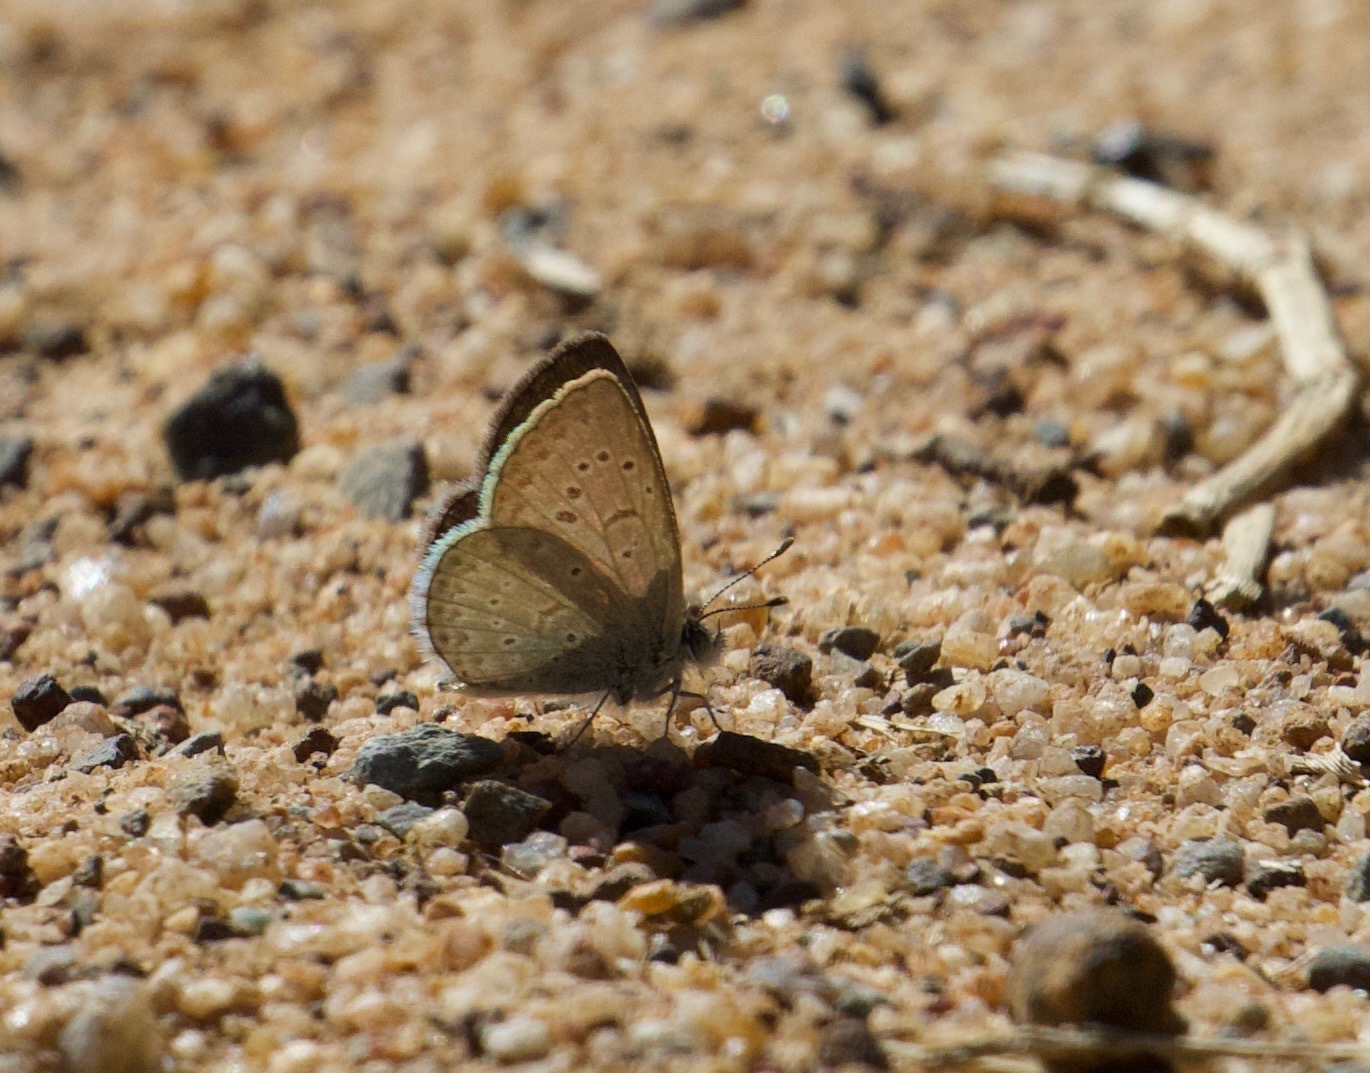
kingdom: Animalia
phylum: Arthropoda
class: Insecta
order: Lepidoptera
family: Lycaenidae
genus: Zizeeria
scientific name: Zizeeria knysna
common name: African grass blue
